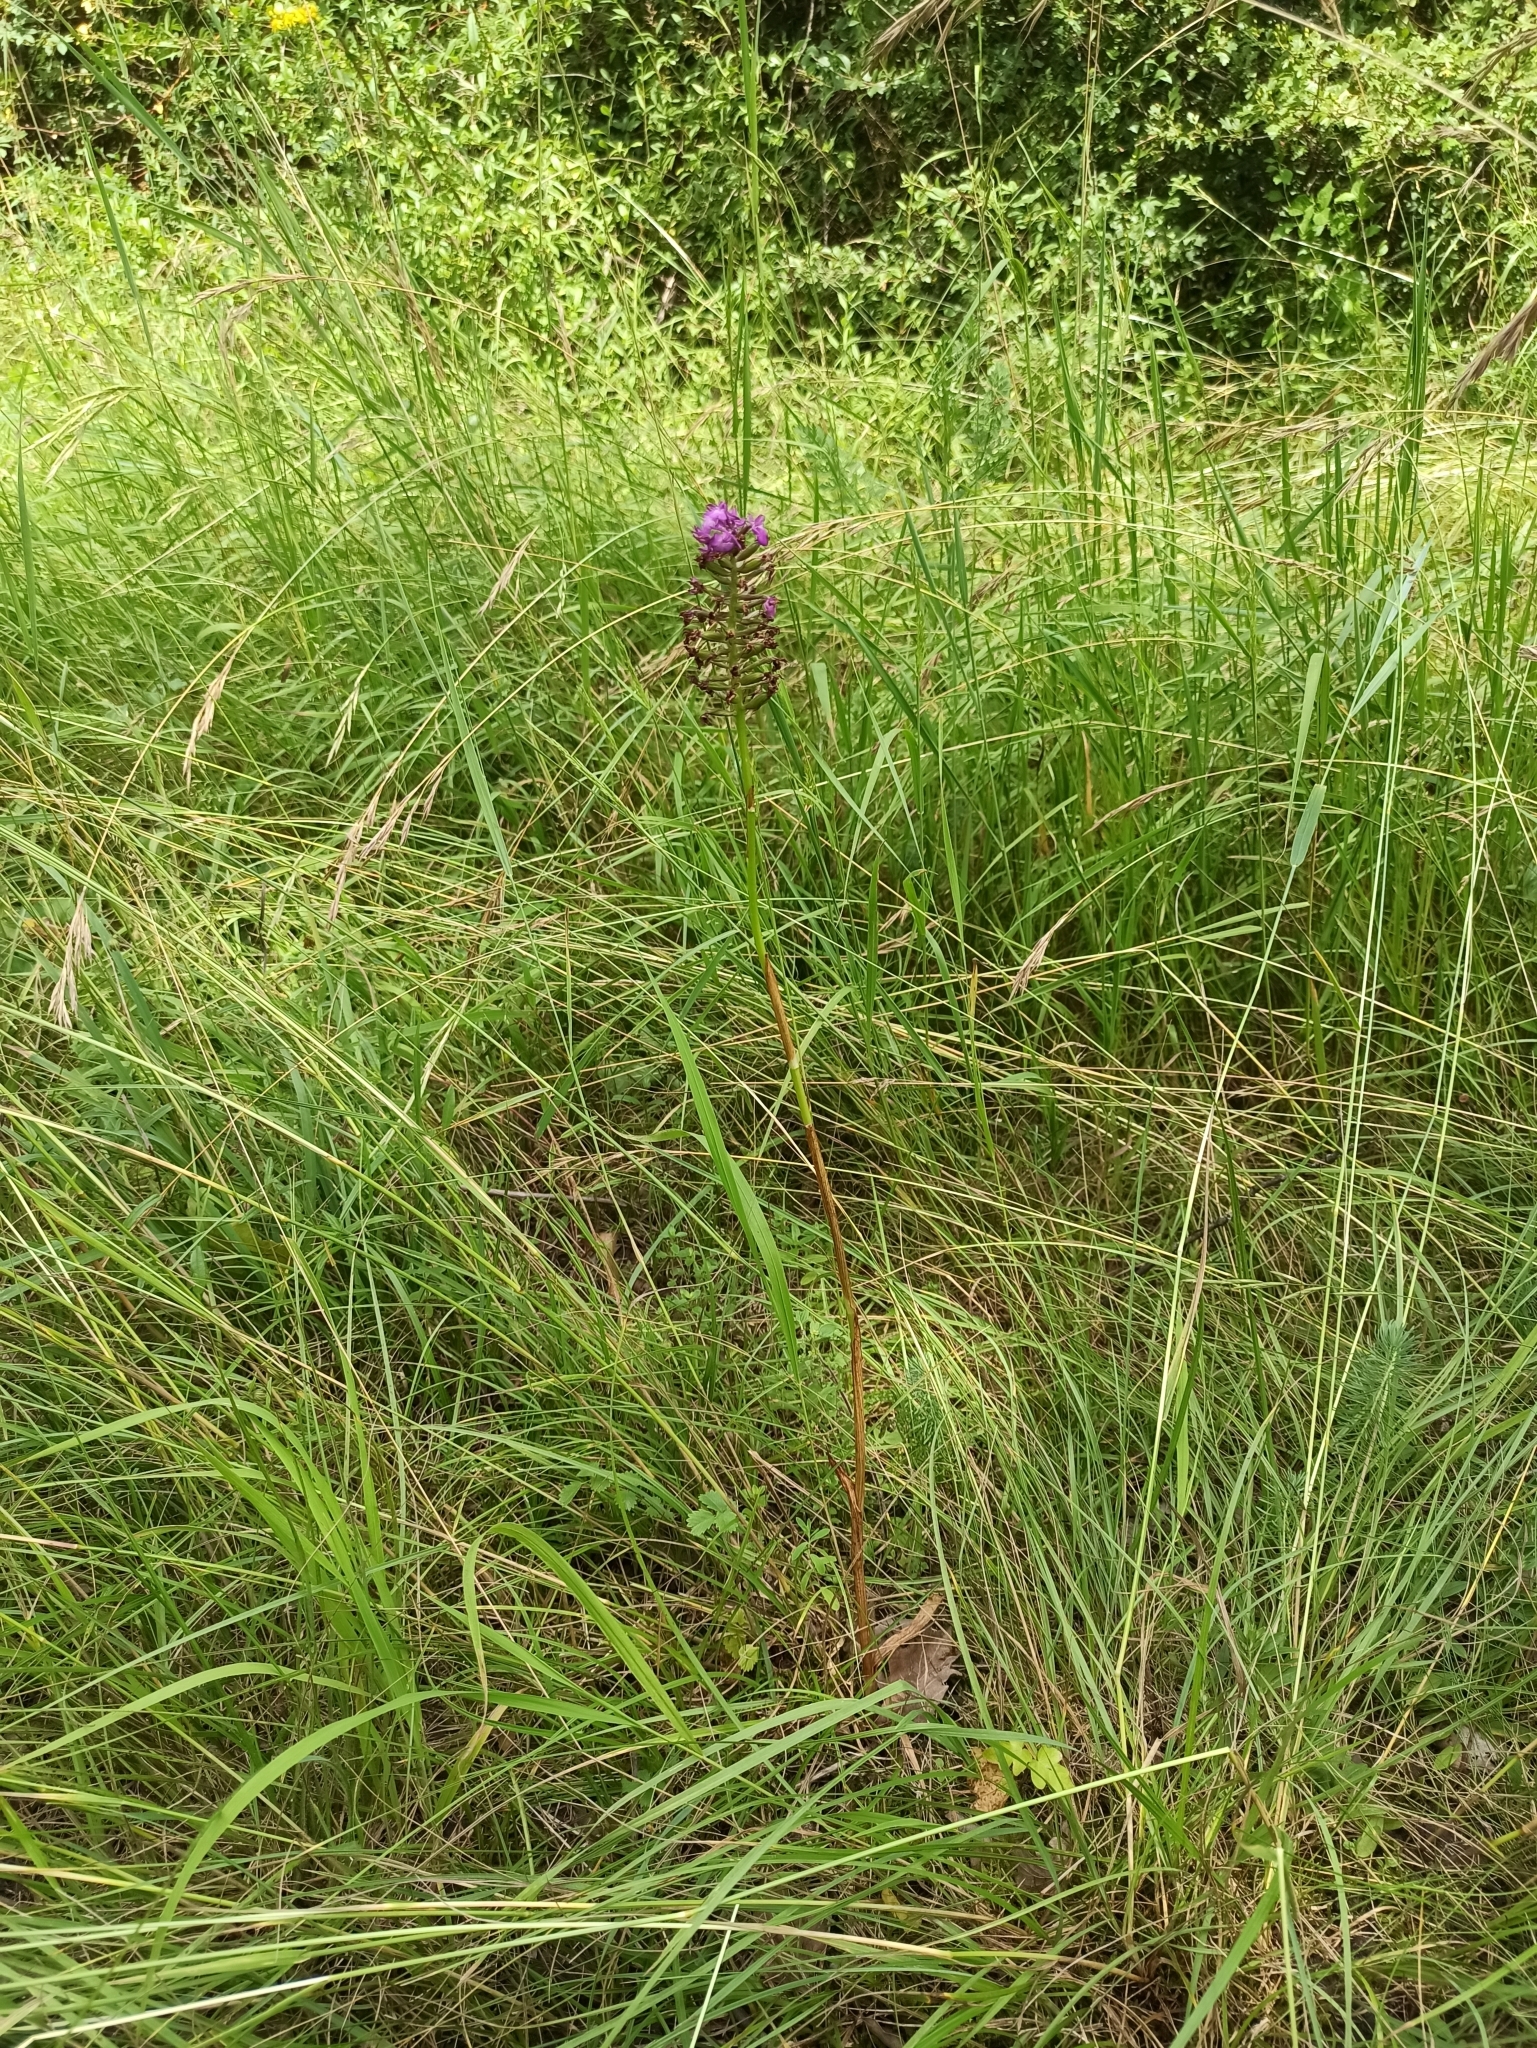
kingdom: Plantae
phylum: Tracheophyta
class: Liliopsida
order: Asparagales
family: Orchidaceae
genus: Anacamptis
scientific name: Anacamptis pyramidalis
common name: Pyramidal orchid
